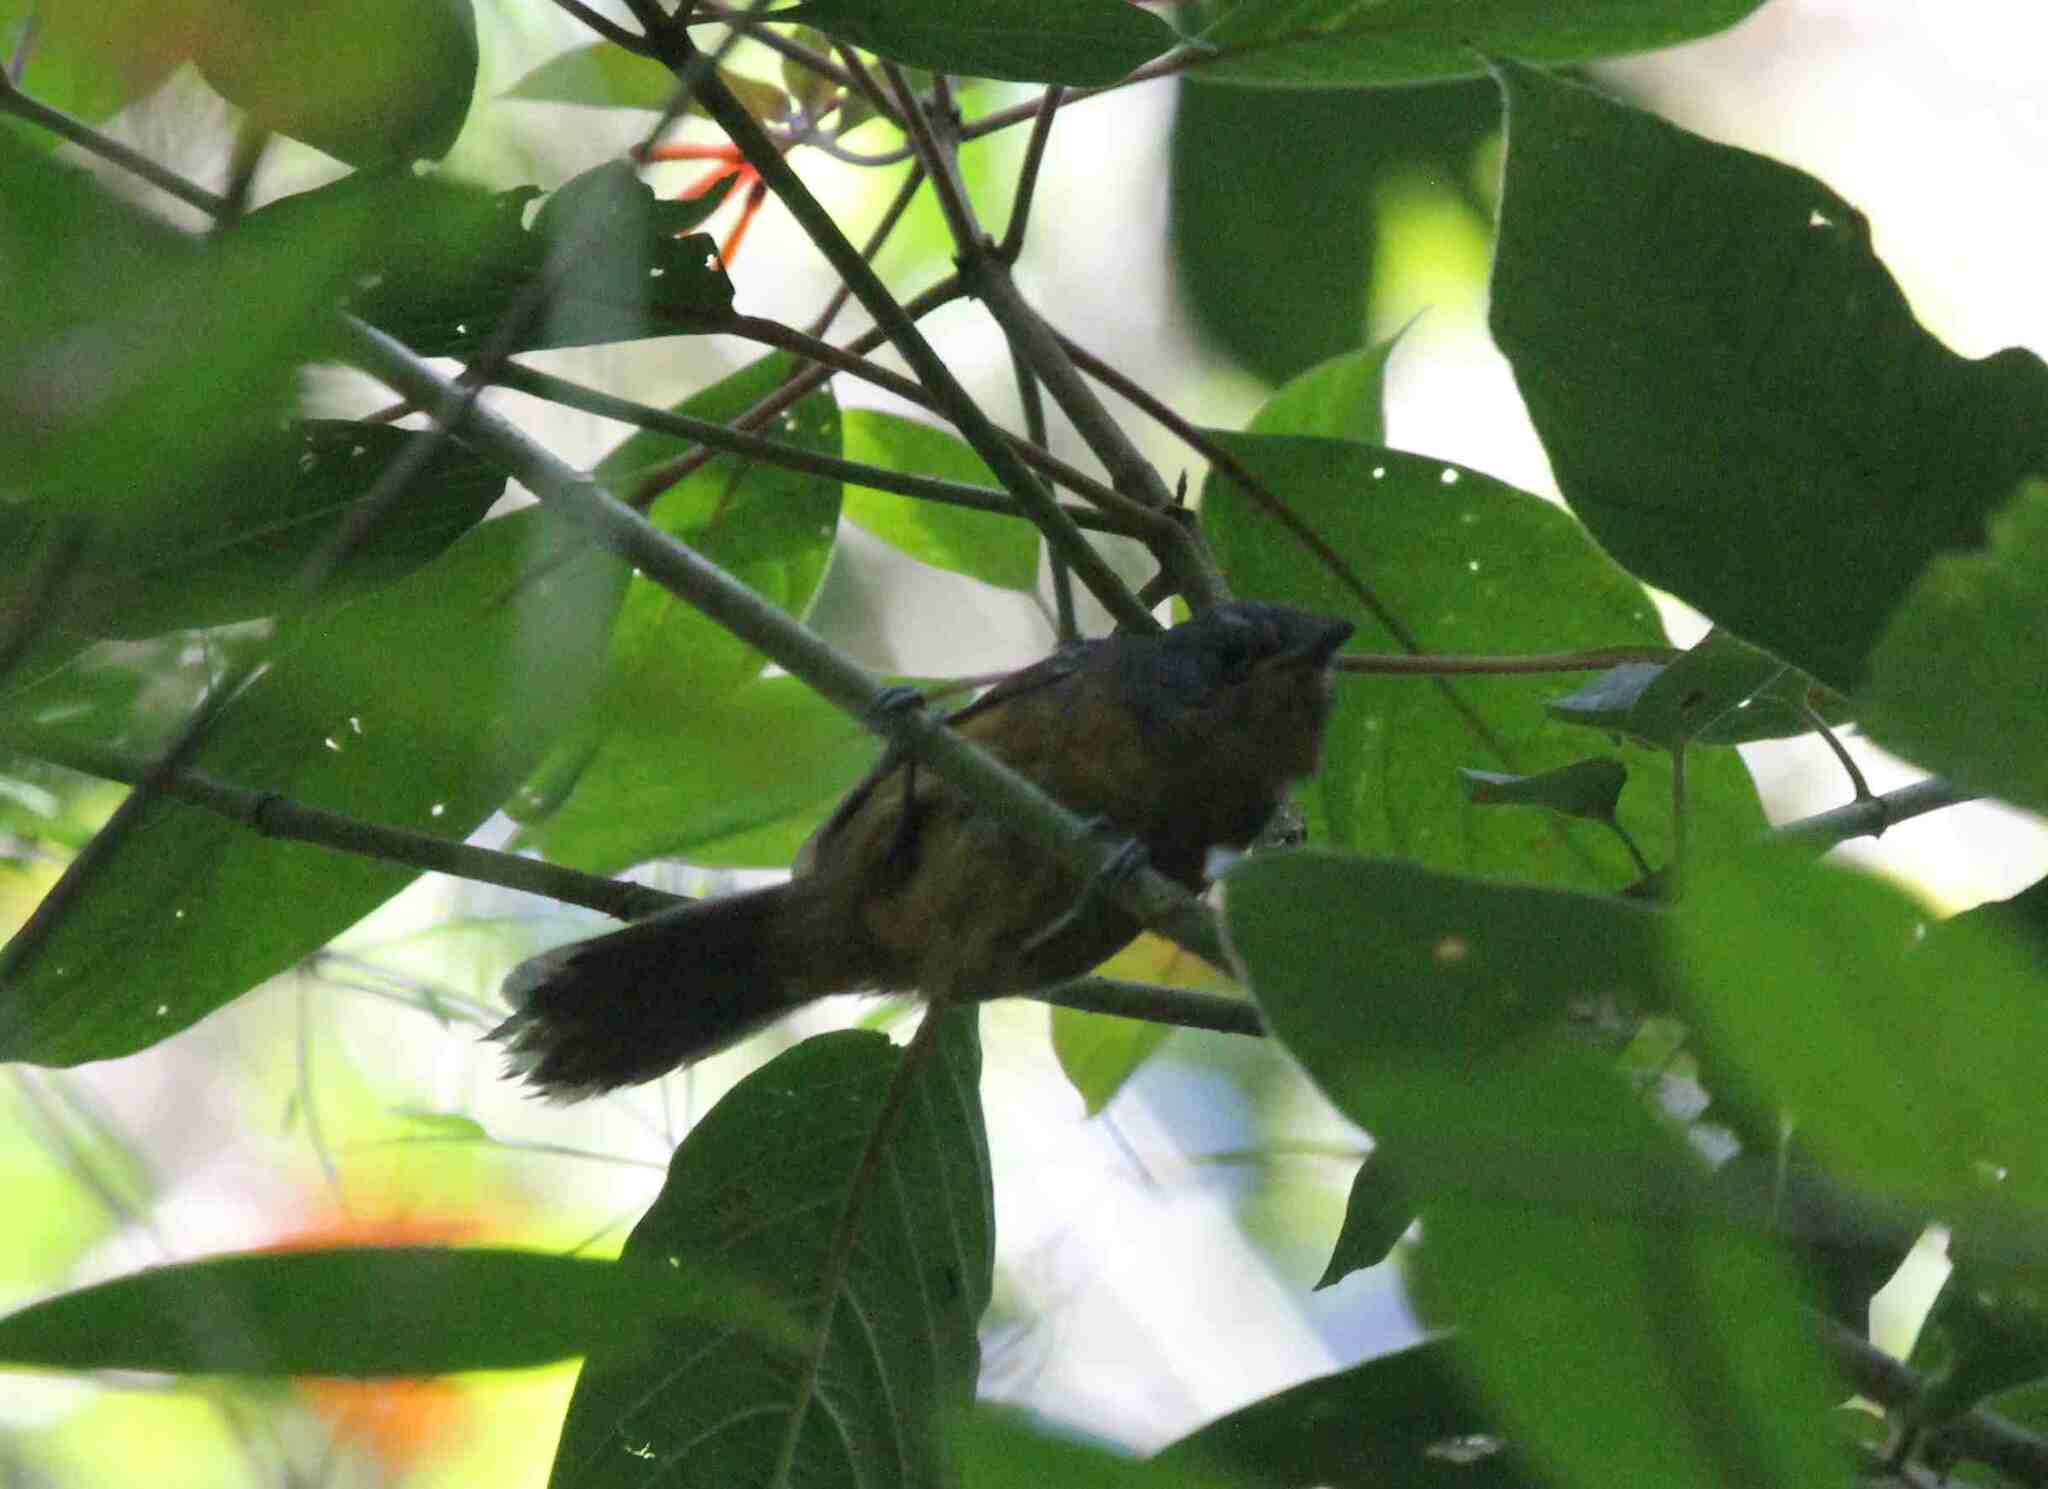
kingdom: Animalia
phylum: Chordata
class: Aves
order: Passeriformes
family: Thamnophilidae
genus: Cercomacra
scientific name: Cercomacra parkeri
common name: Parker's antbird
